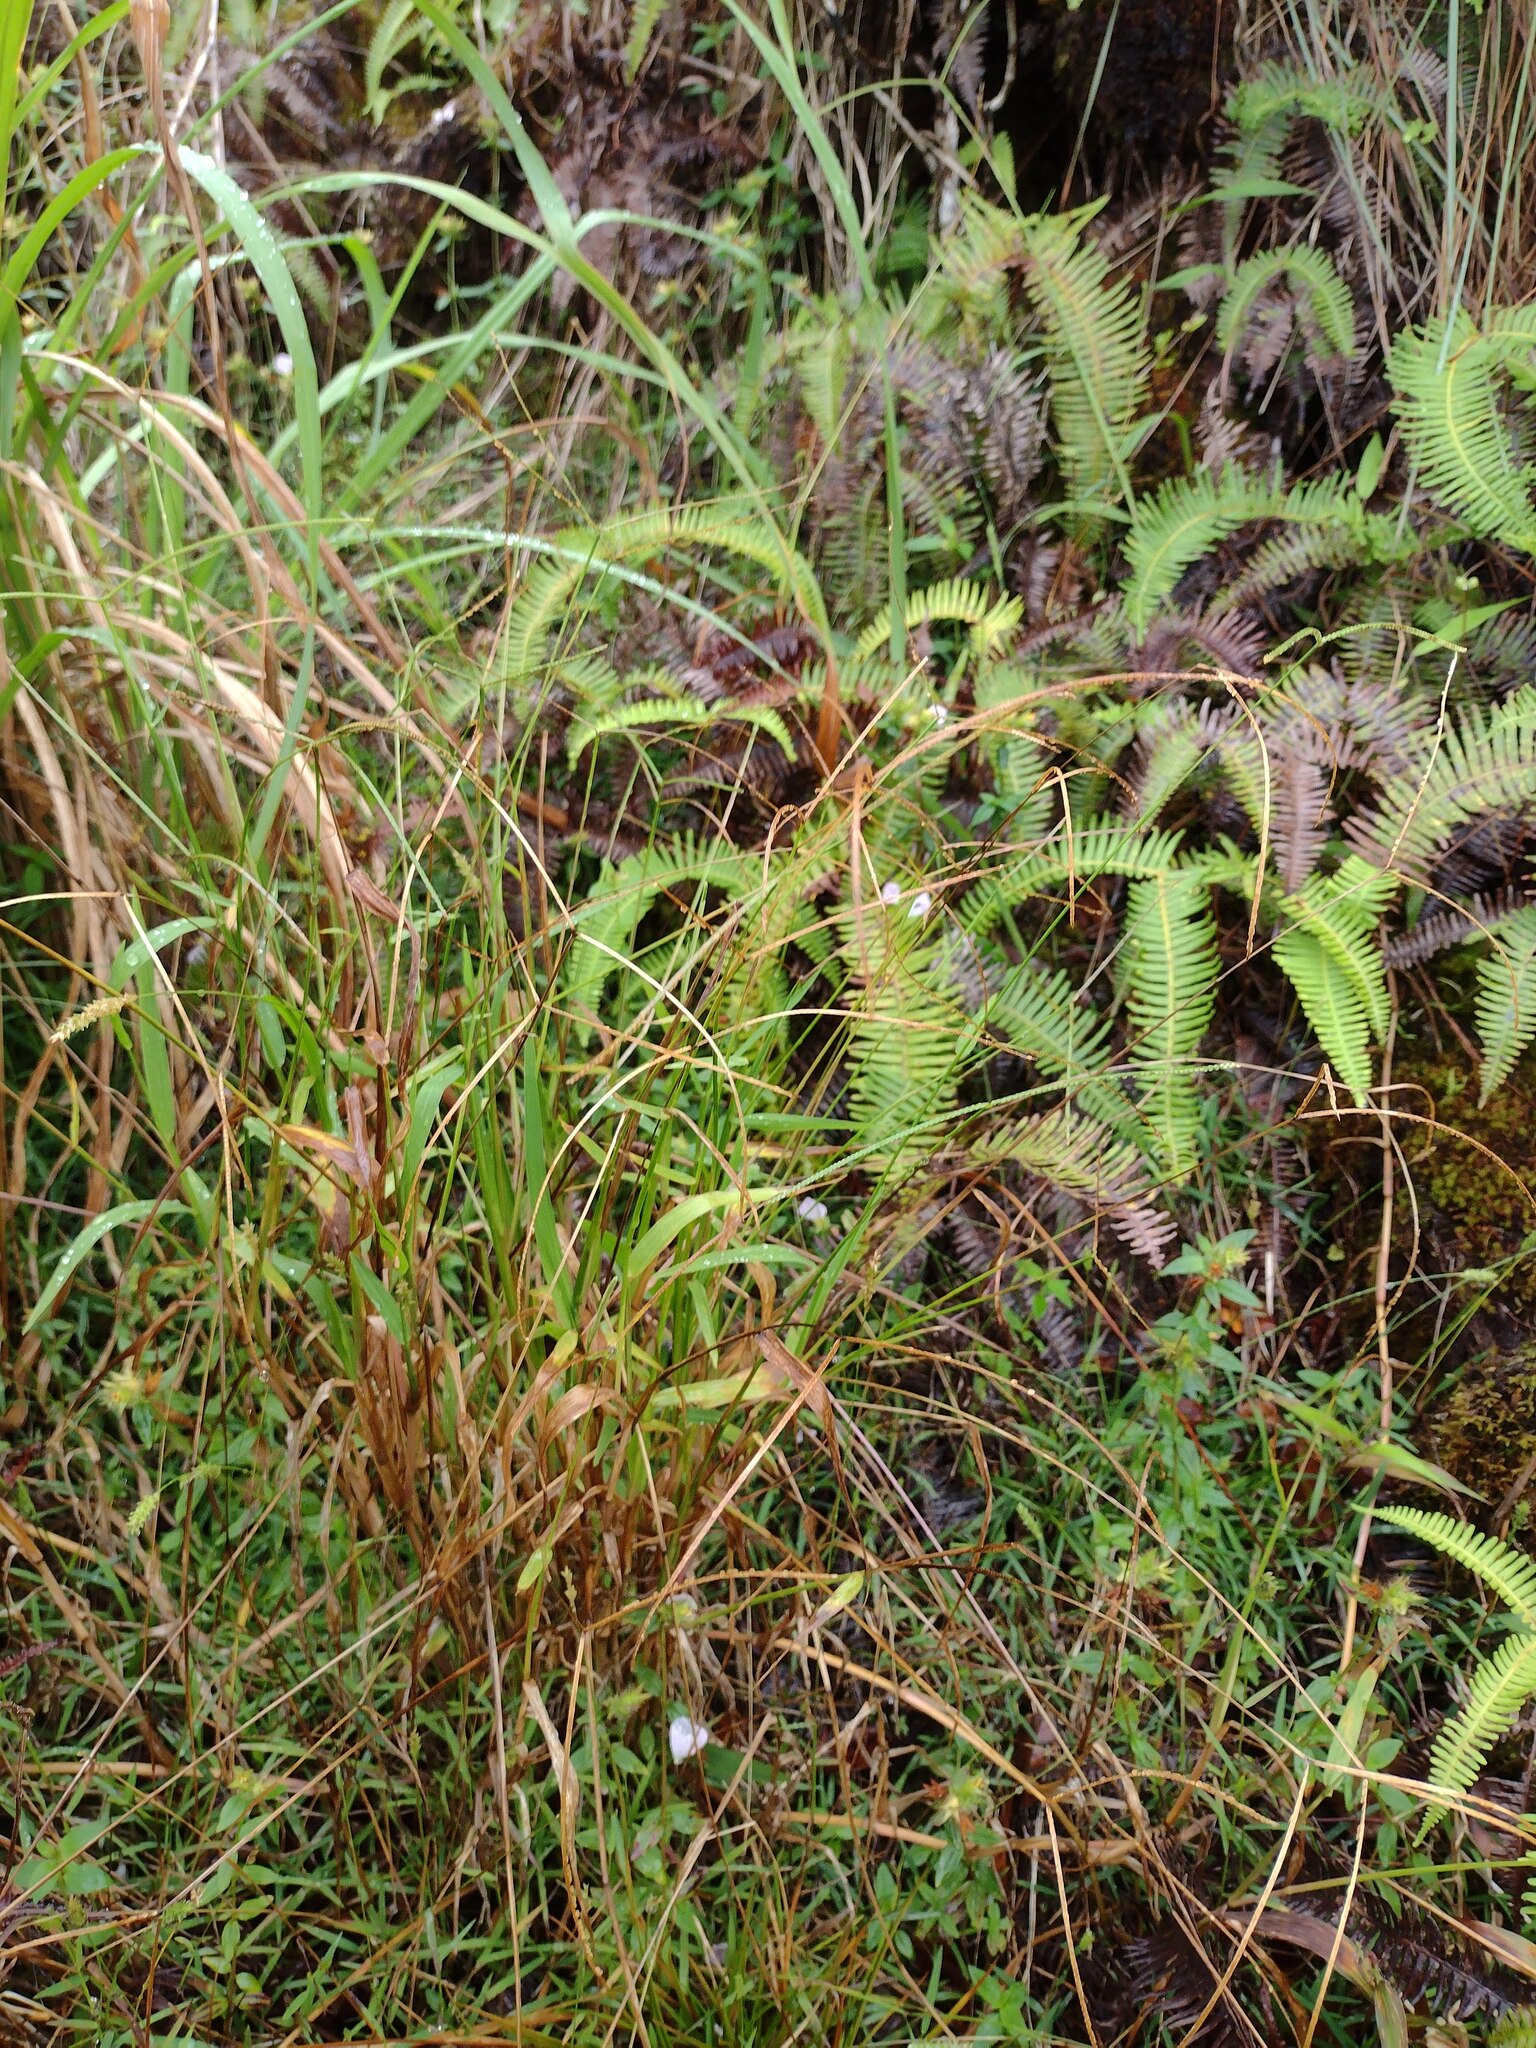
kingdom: Plantae
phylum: Tracheophyta
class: Liliopsida
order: Poales
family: Poaceae
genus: Paspalum
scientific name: Paspalum conjugatum
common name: Hilograss
